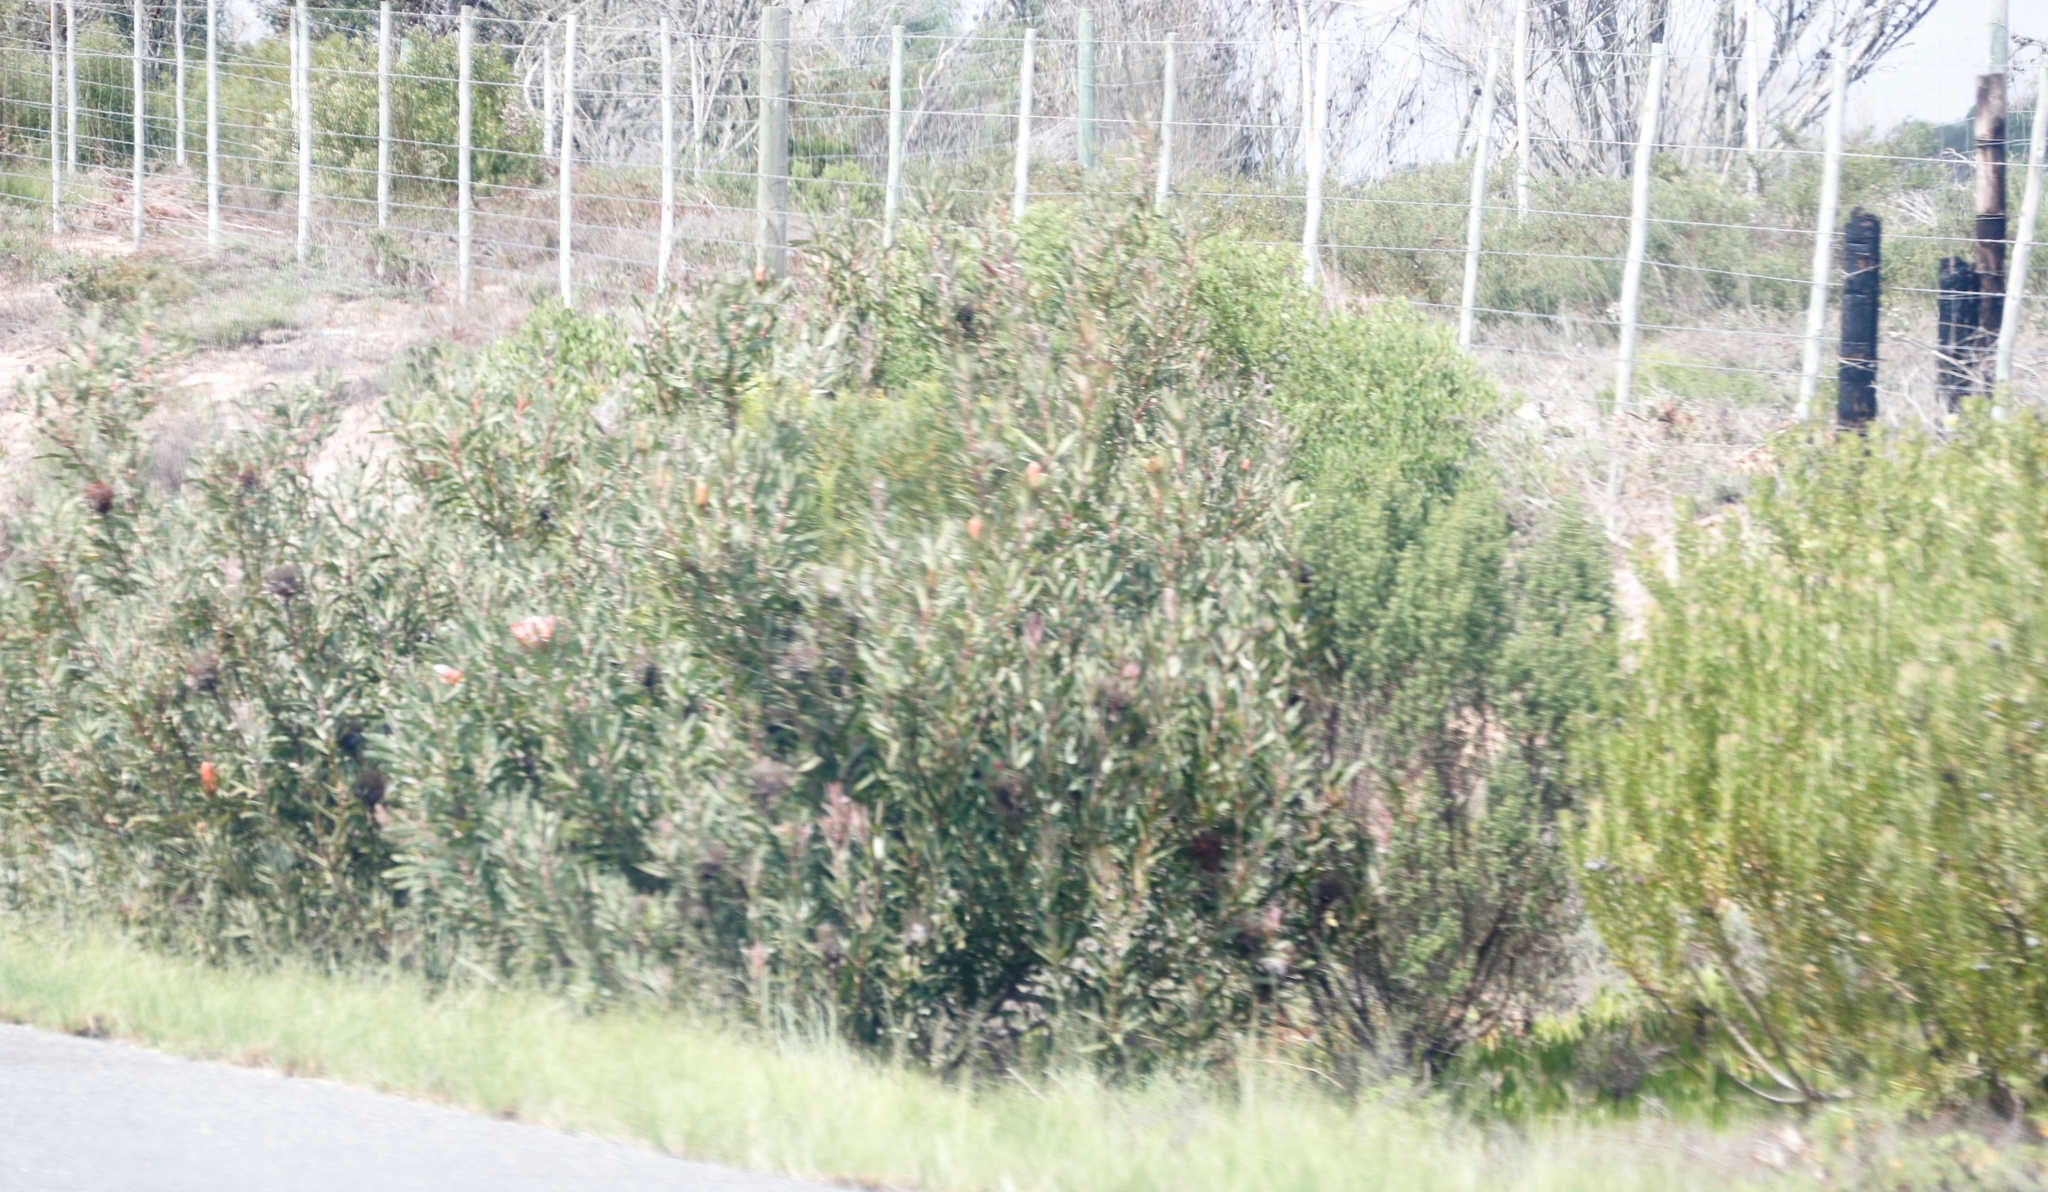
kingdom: Plantae
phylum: Tracheophyta
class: Magnoliopsida
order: Proteales
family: Proteaceae
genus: Protea
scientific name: Protea susannae
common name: Foetid-leaf sugarbush
